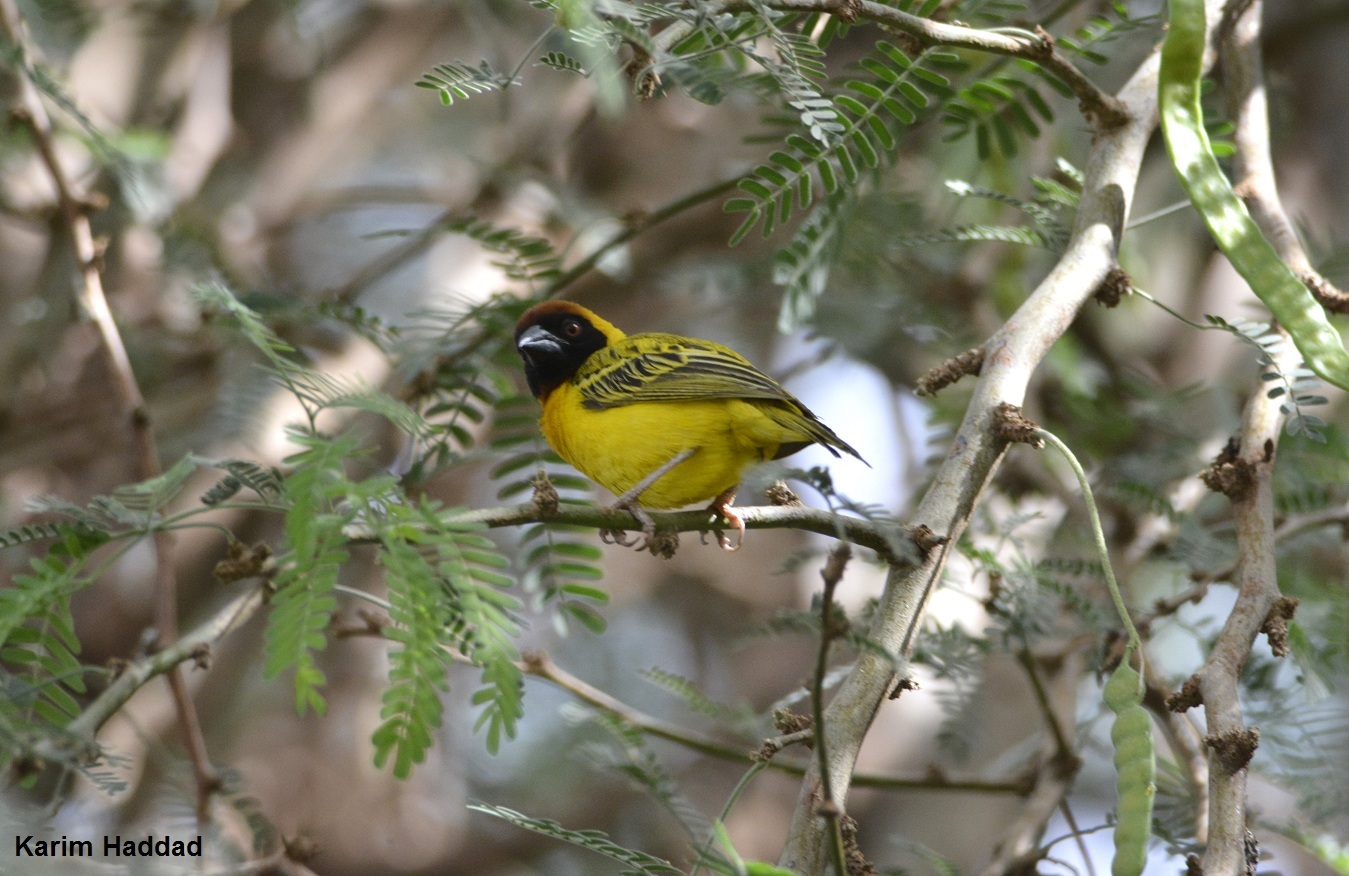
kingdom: Animalia
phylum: Chordata
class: Aves
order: Passeriformes
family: Ploceidae
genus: Ploceus
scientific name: Ploceus vitellinus
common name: Vitelline masked weaver
